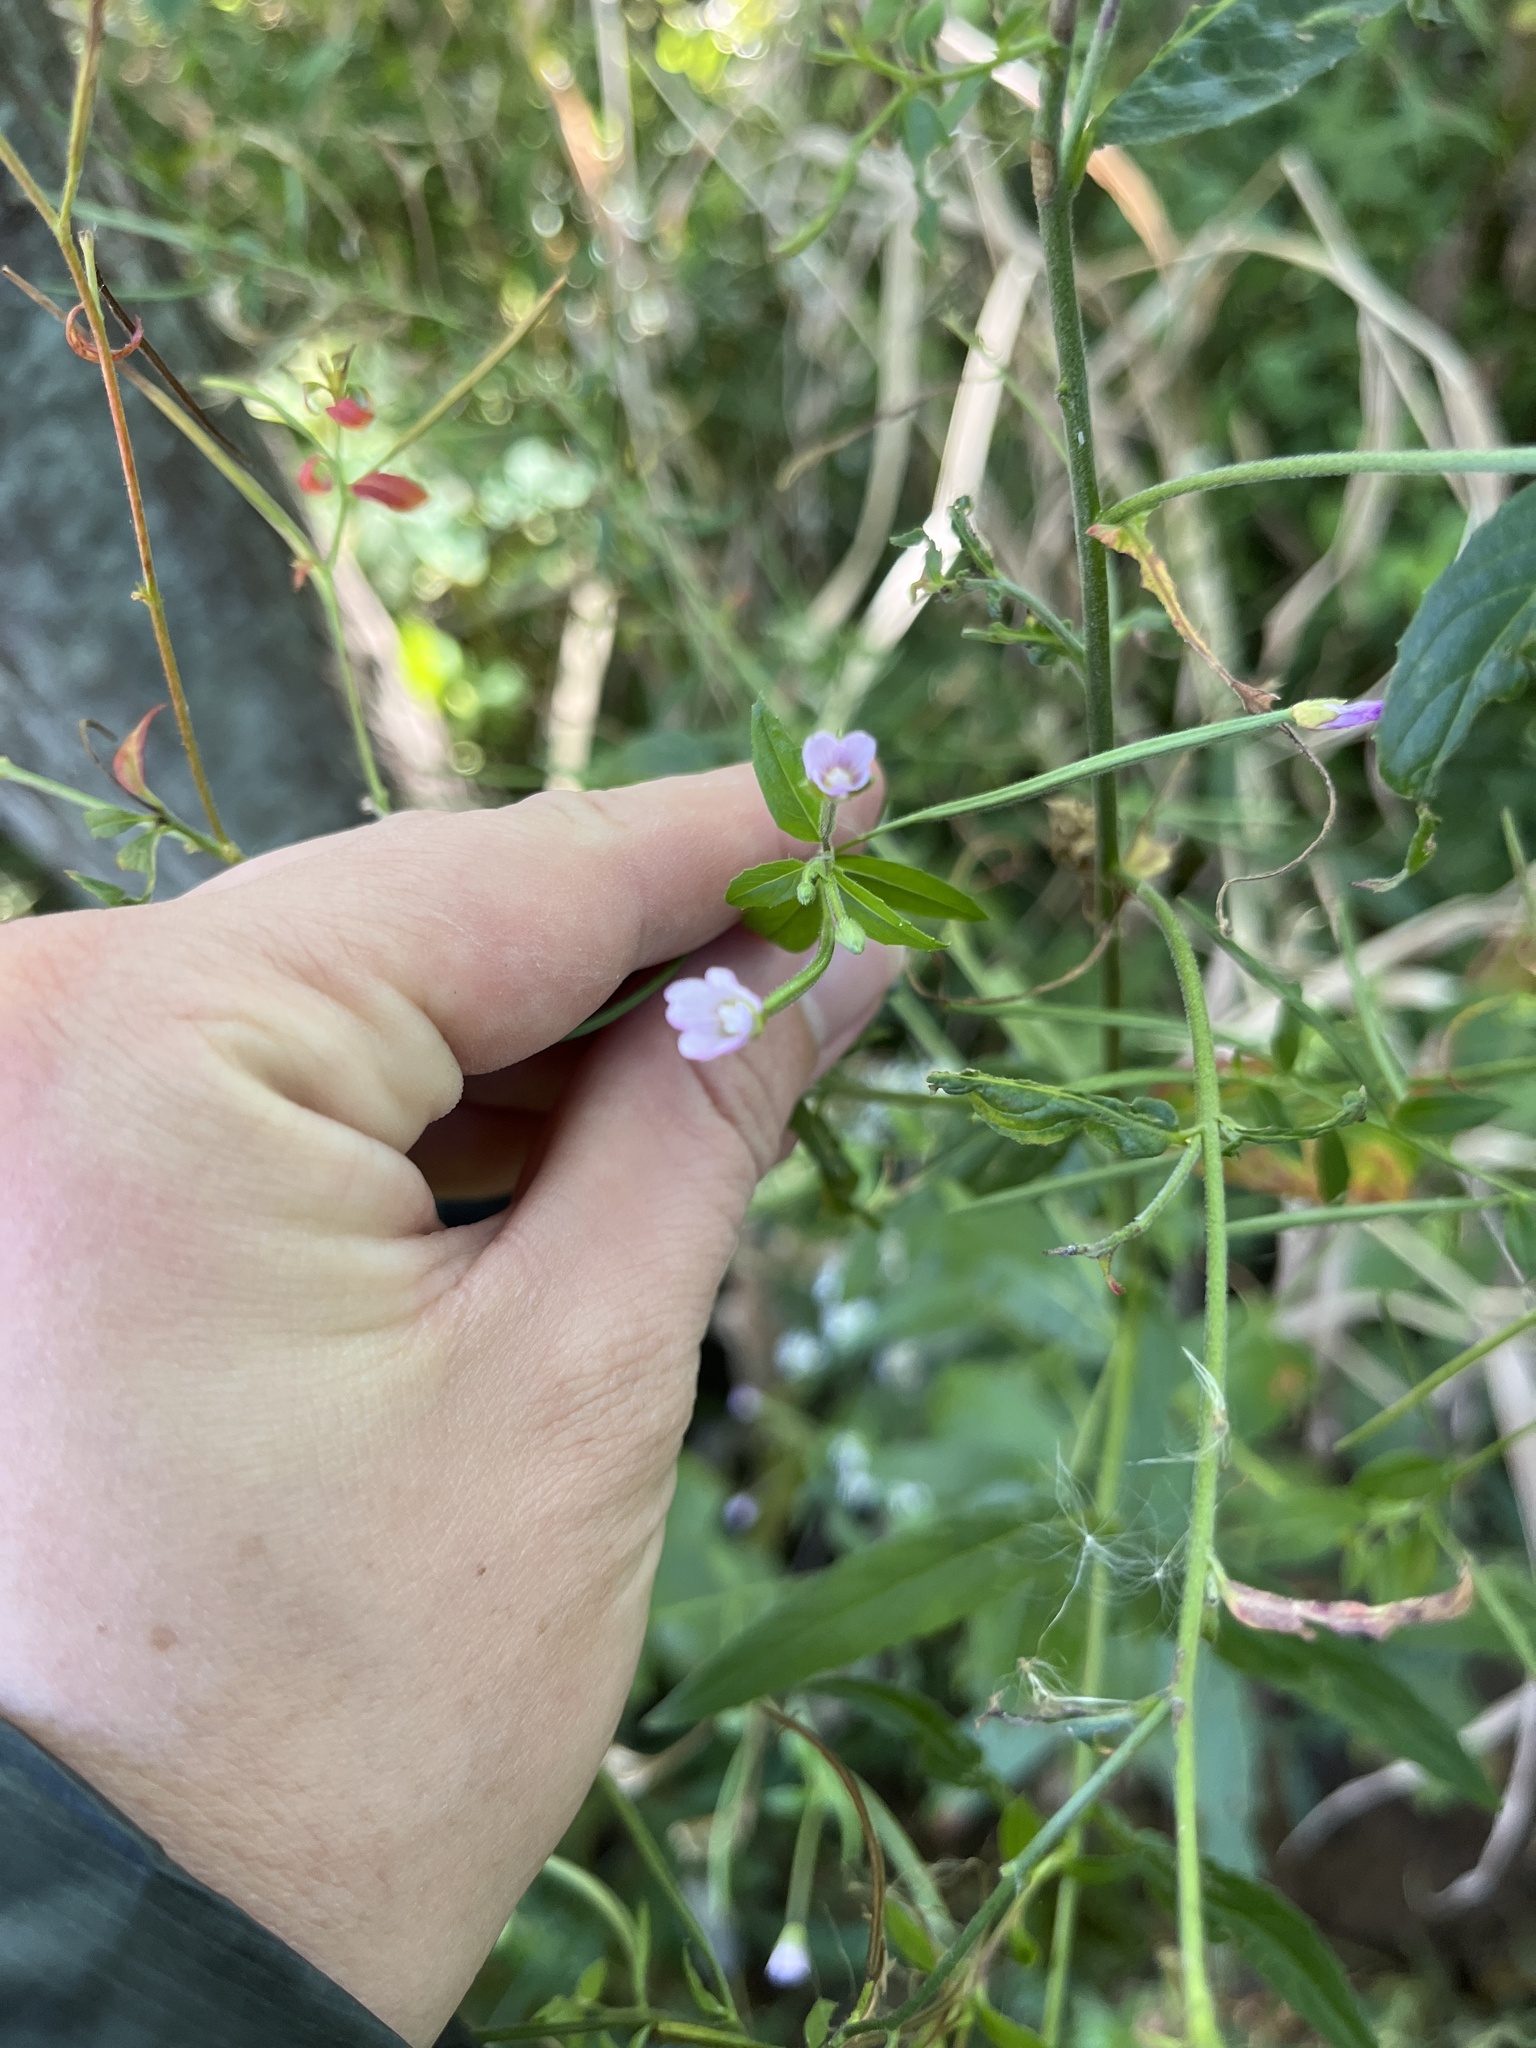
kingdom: Plantae
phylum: Tracheophyta
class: Magnoliopsida
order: Myrtales
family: Onagraceae
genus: Epilobium
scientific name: Epilobium coloratum
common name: Bronze willowherb
